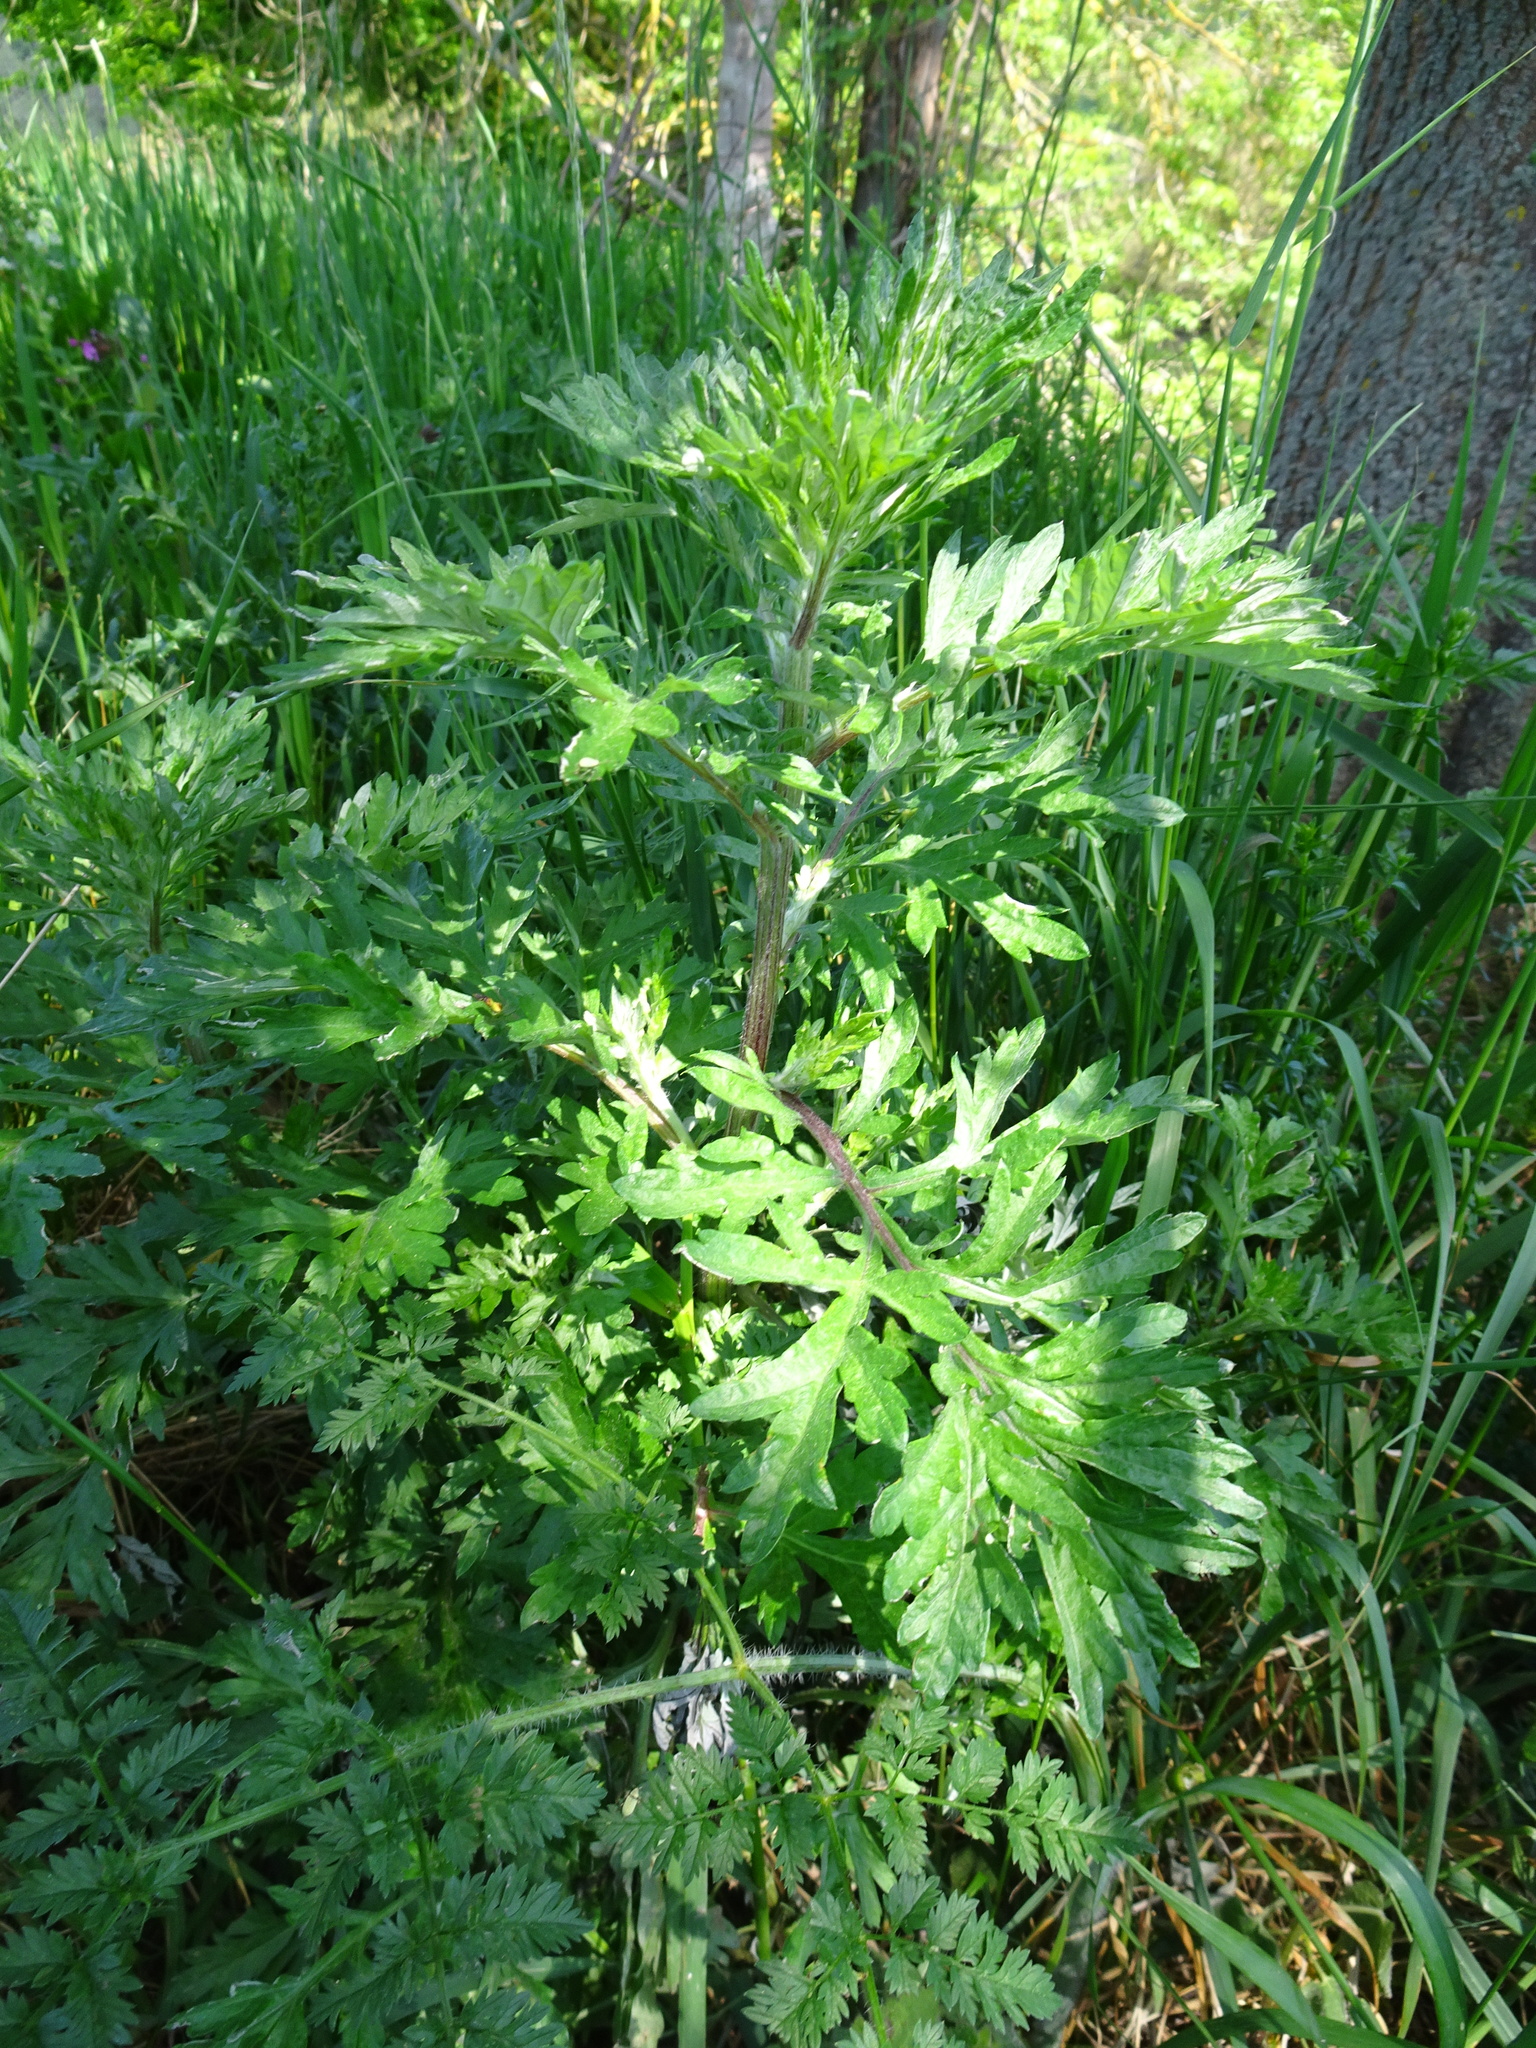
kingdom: Plantae
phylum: Tracheophyta
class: Magnoliopsida
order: Asterales
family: Asteraceae
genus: Artemisia
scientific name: Artemisia vulgaris
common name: Mugwort
